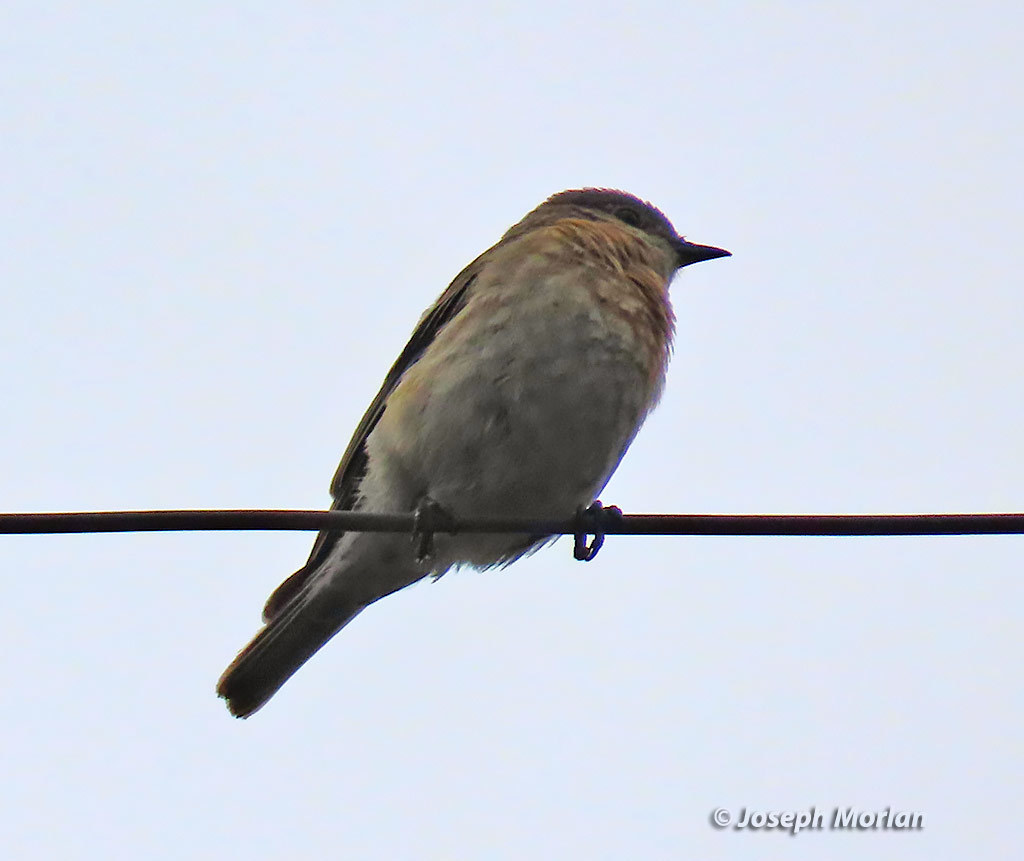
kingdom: Animalia
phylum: Chordata
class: Aves
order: Passeriformes
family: Turdidae
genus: Sialia
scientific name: Sialia mexicana
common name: Western bluebird
